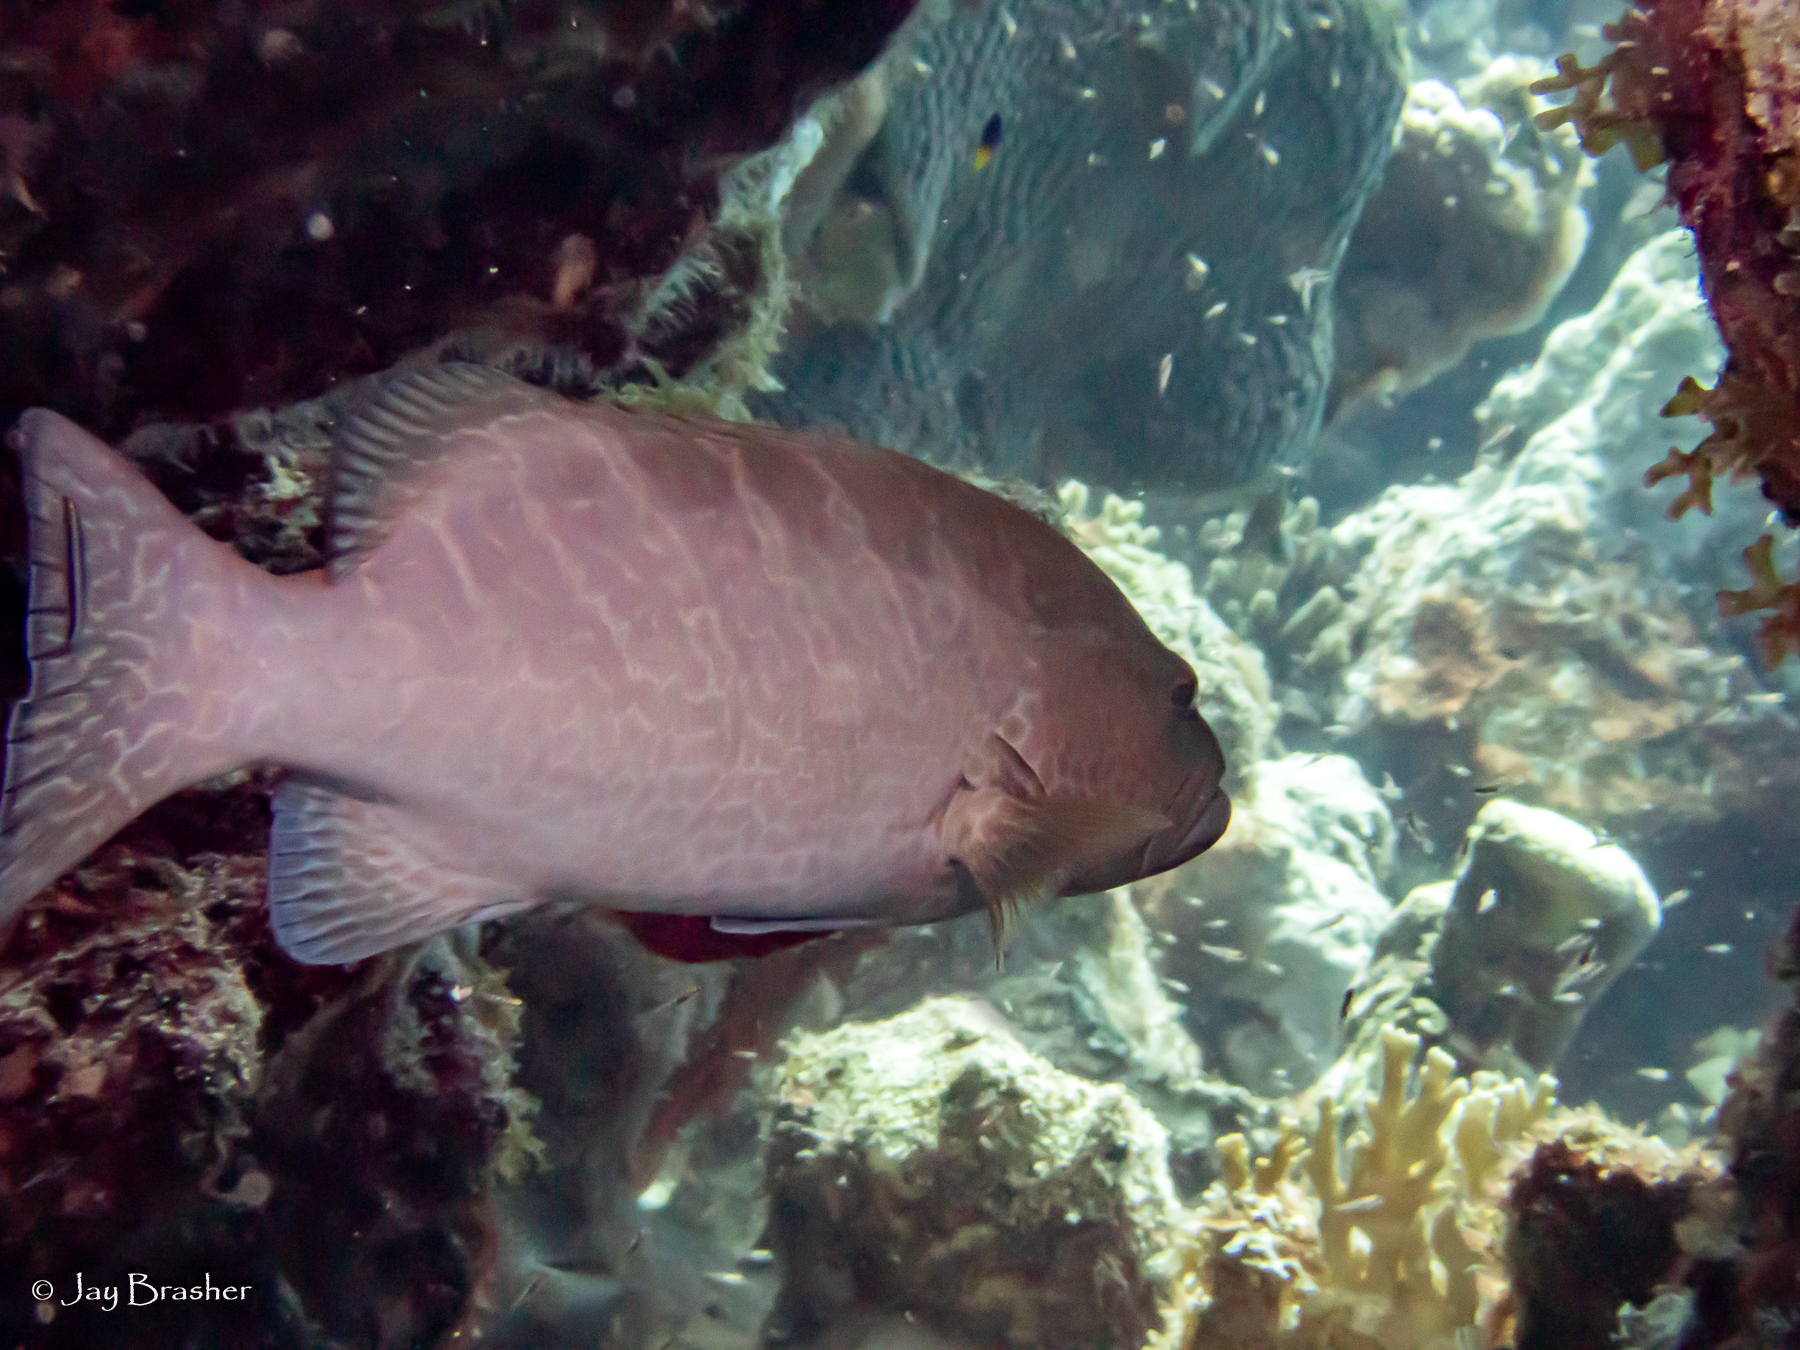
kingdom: Animalia
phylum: Chordata
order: Perciformes
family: Serranidae
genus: Mycteroperca
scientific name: Mycteroperca tigris
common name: Tiger grouper
